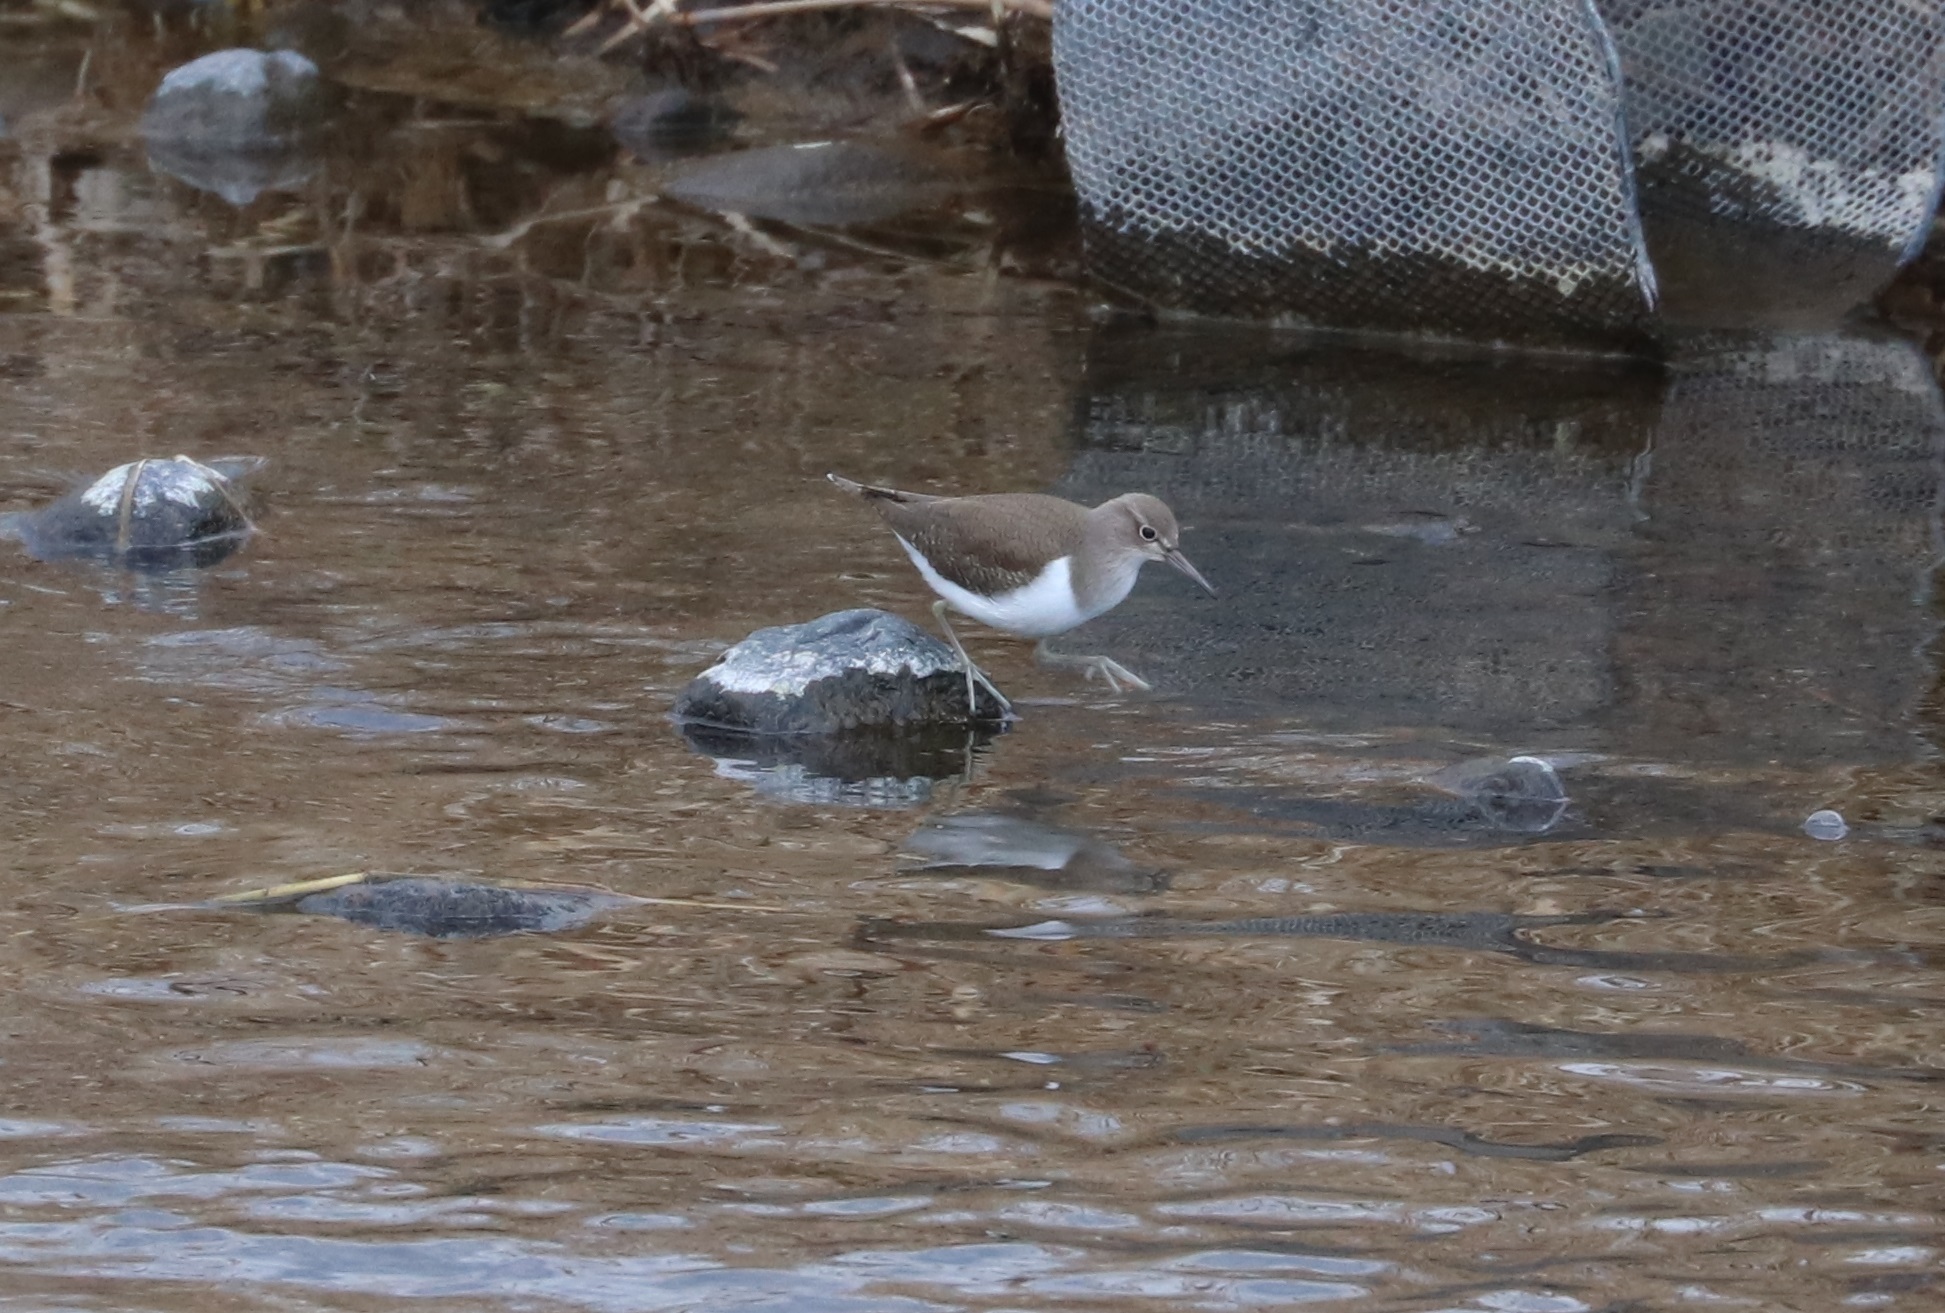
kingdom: Animalia
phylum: Chordata
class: Aves
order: Charadriiformes
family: Scolopacidae
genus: Actitis
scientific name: Actitis hypoleucos
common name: Common sandpiper
